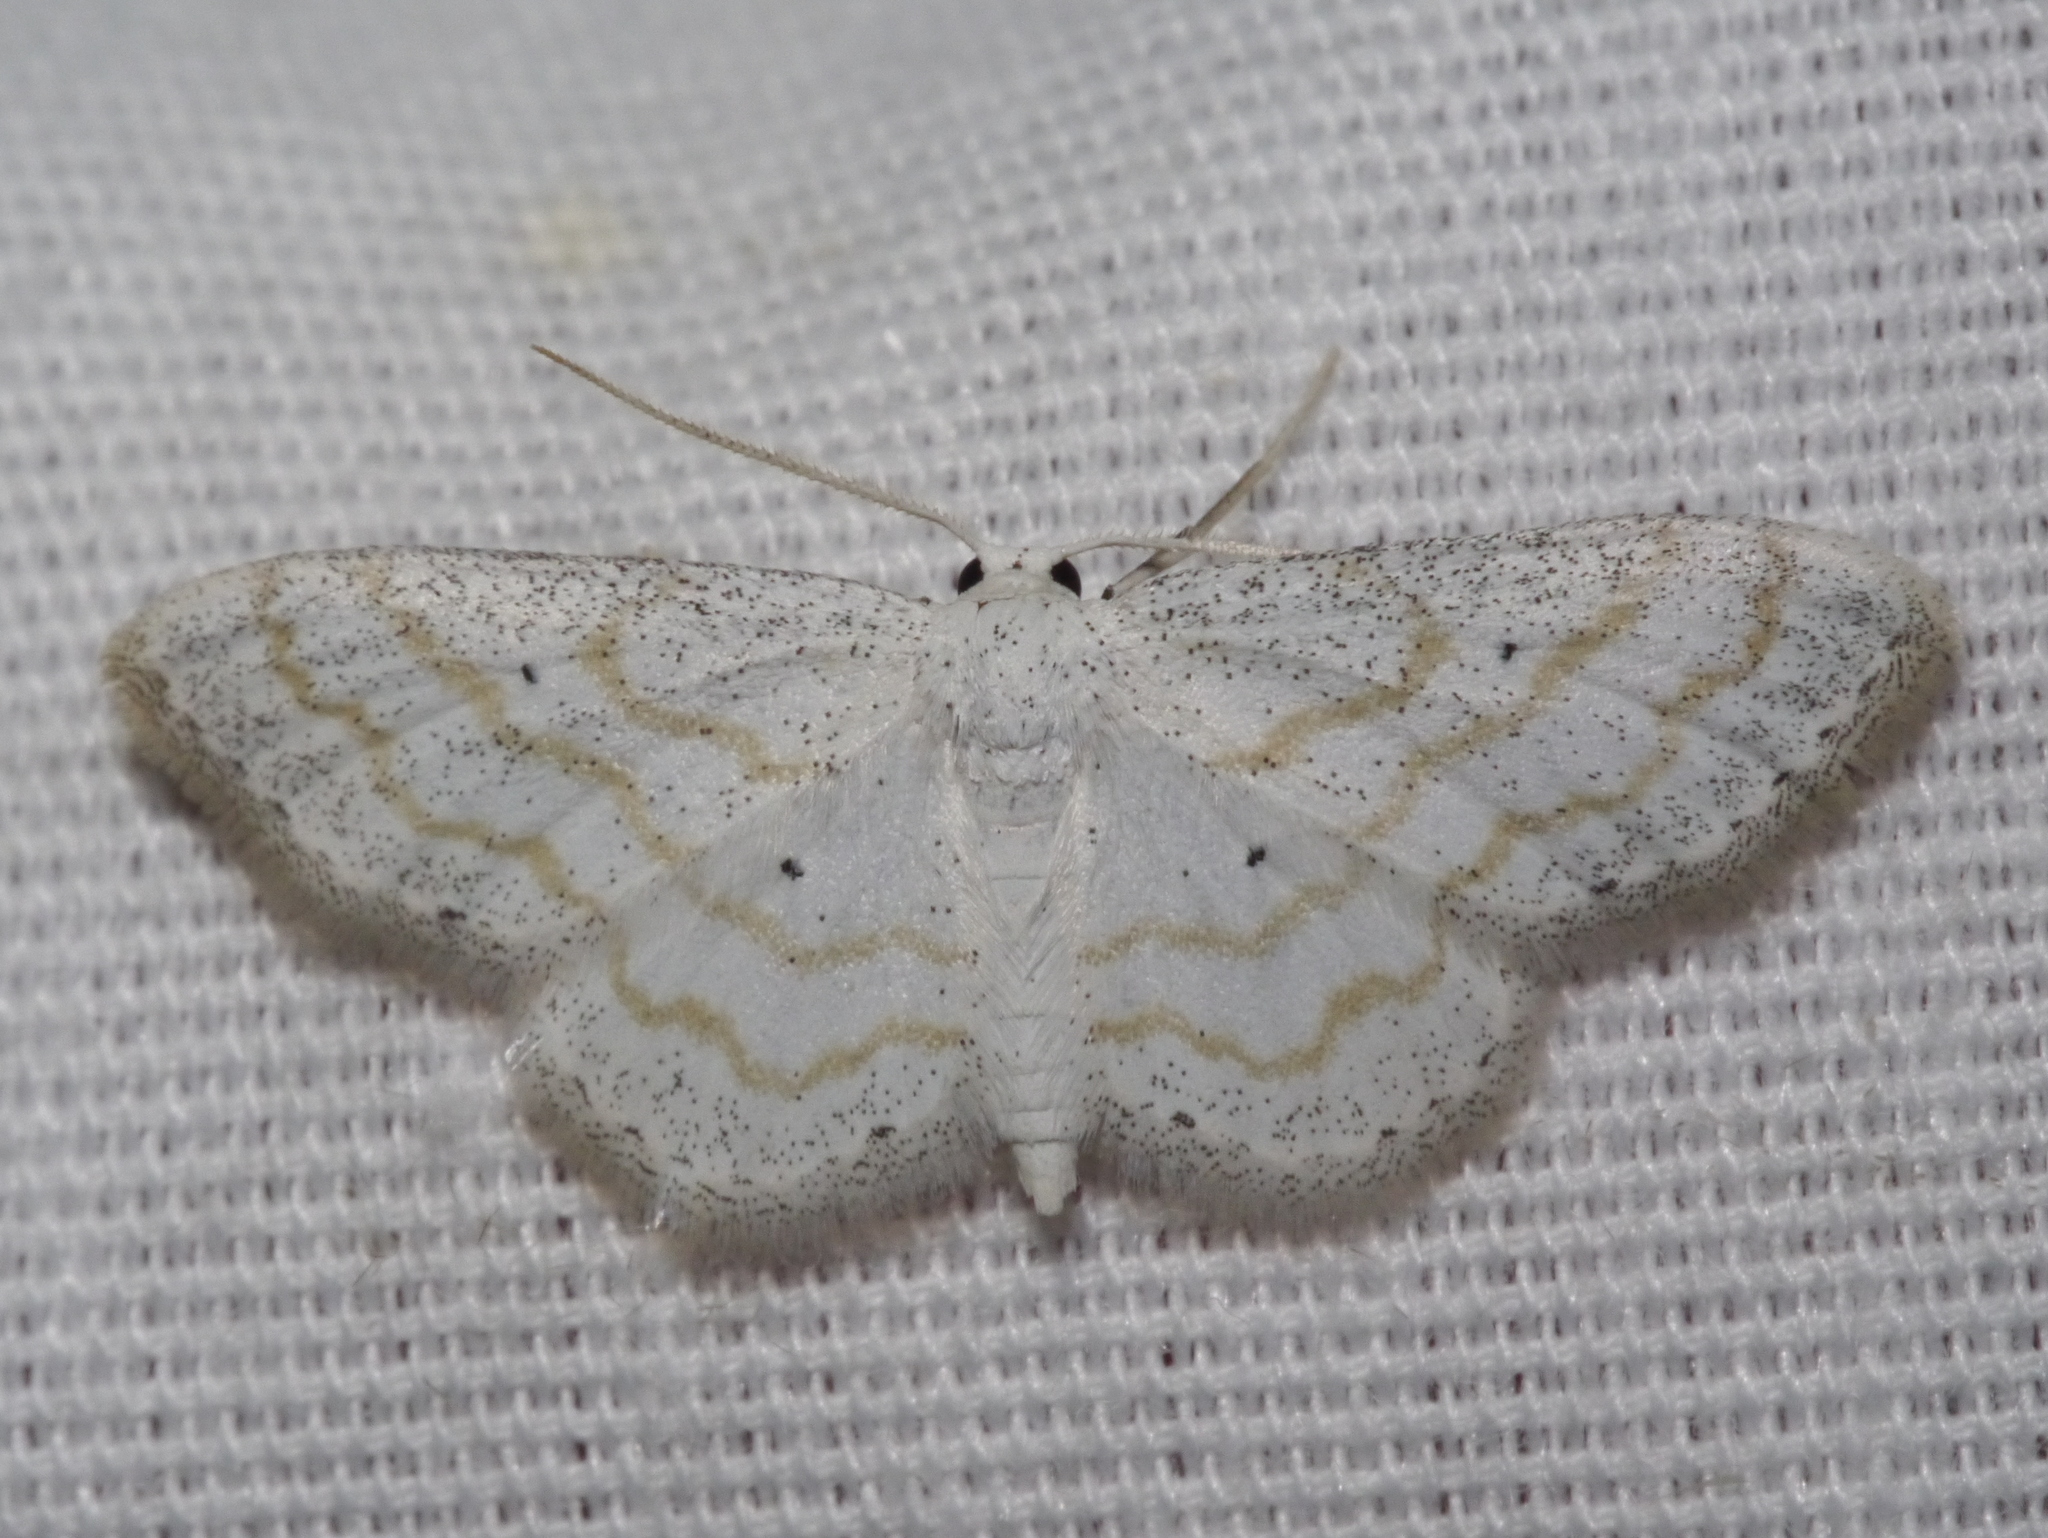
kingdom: Animalia
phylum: Arthropoda
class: Insecta
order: Lepidoptera
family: Geometridae
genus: Lobocleta
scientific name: Lobocleta peralbata
